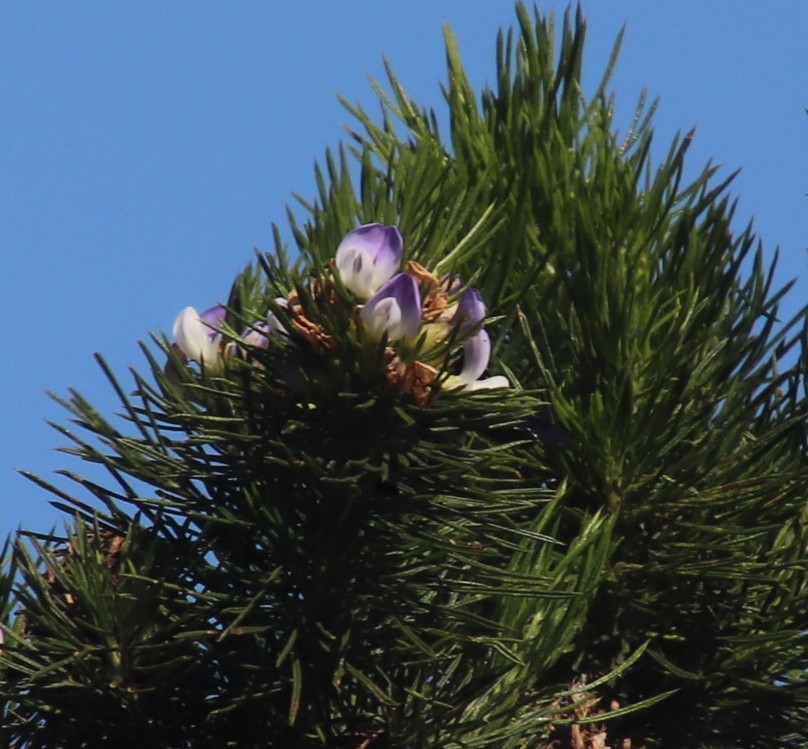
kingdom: Plantae
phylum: Tracheophyta
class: Magnoliopsida
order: Fabales
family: Fabaceae
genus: Psoralea
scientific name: Psoralea pinnata
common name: African scurfpea
